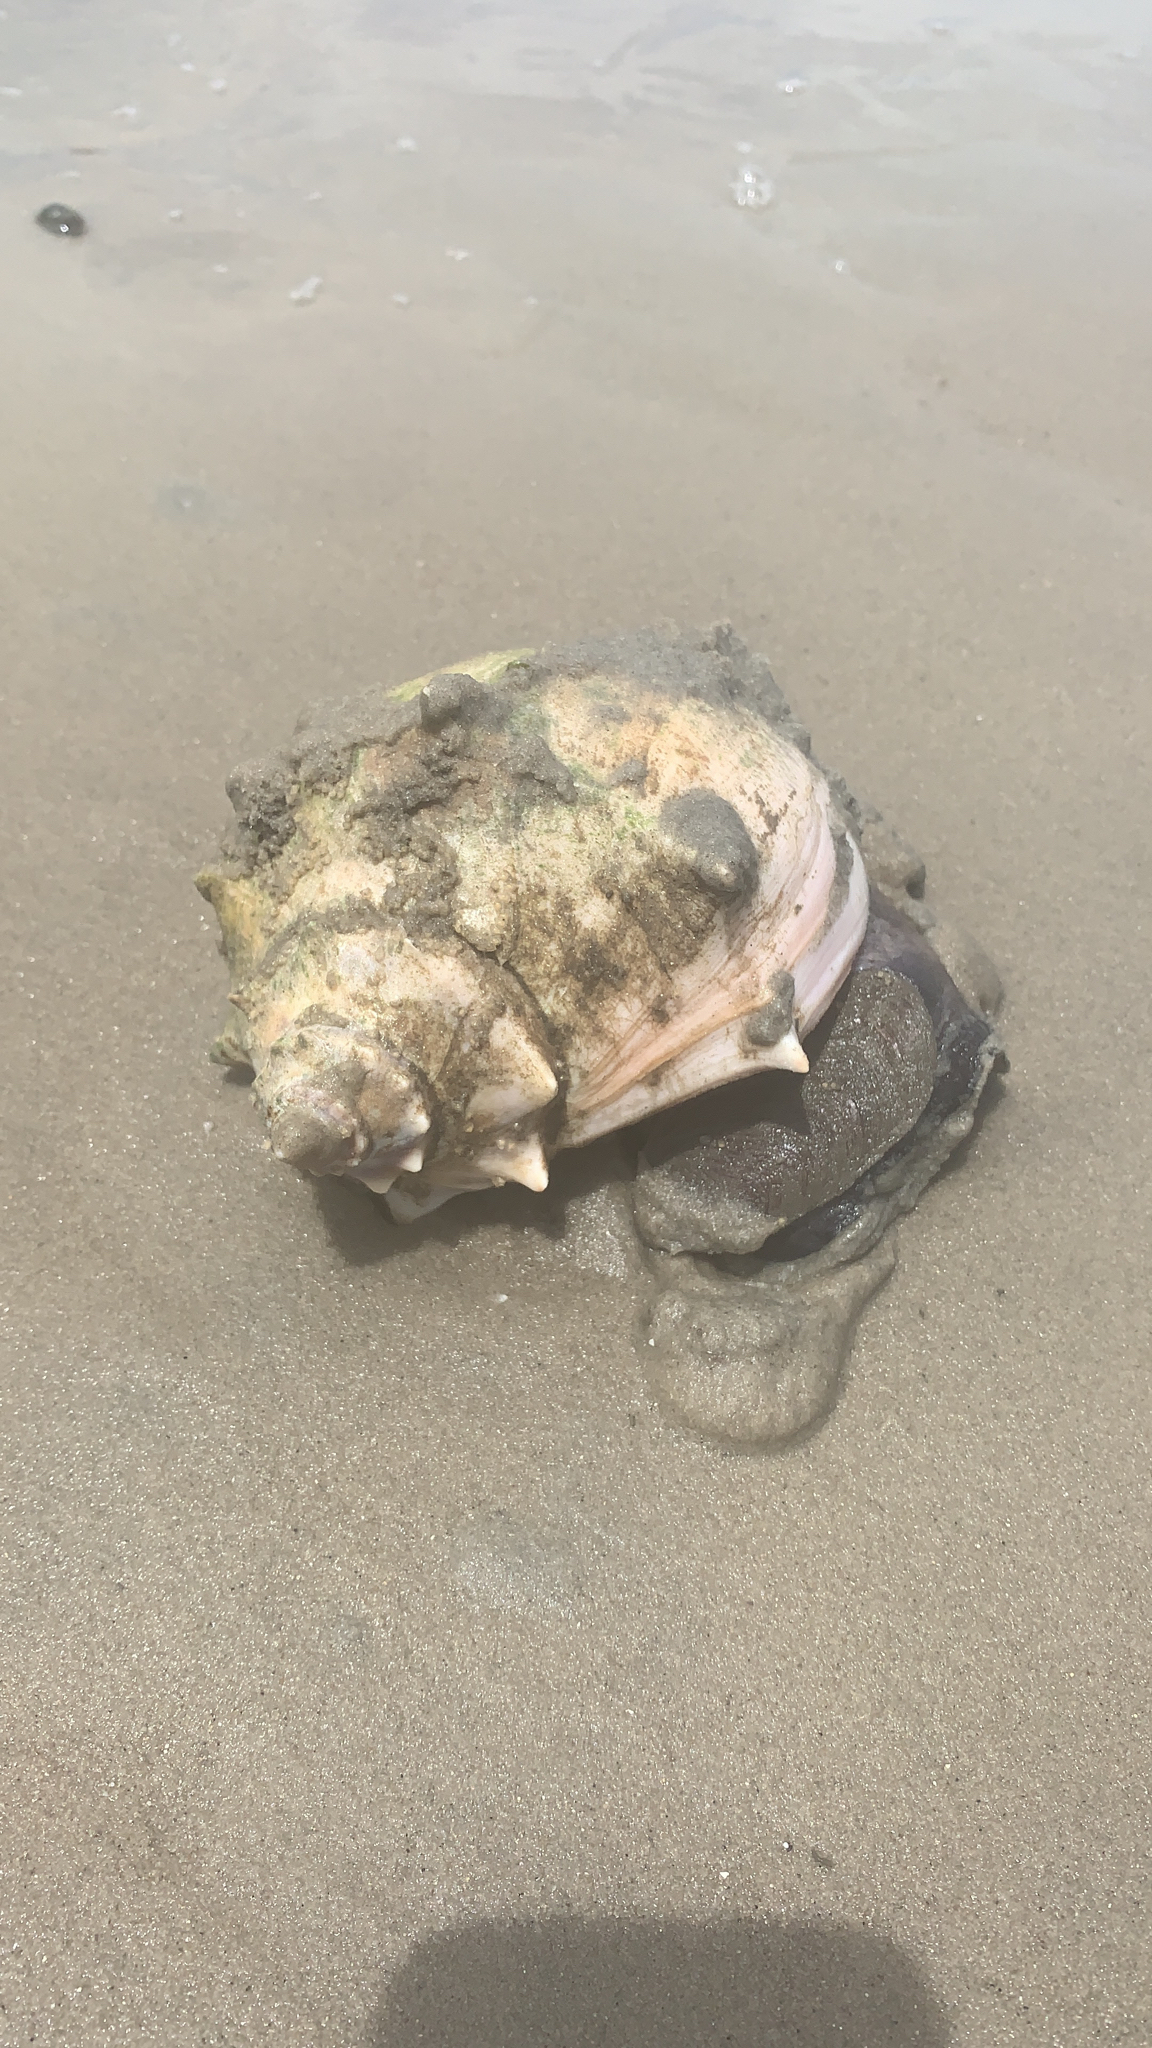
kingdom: Animalia
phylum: Mollusca
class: Gastropoda
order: Neogastropoda
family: Busyconidae
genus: Busycon
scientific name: Busycon carica
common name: Knobbed whelk
